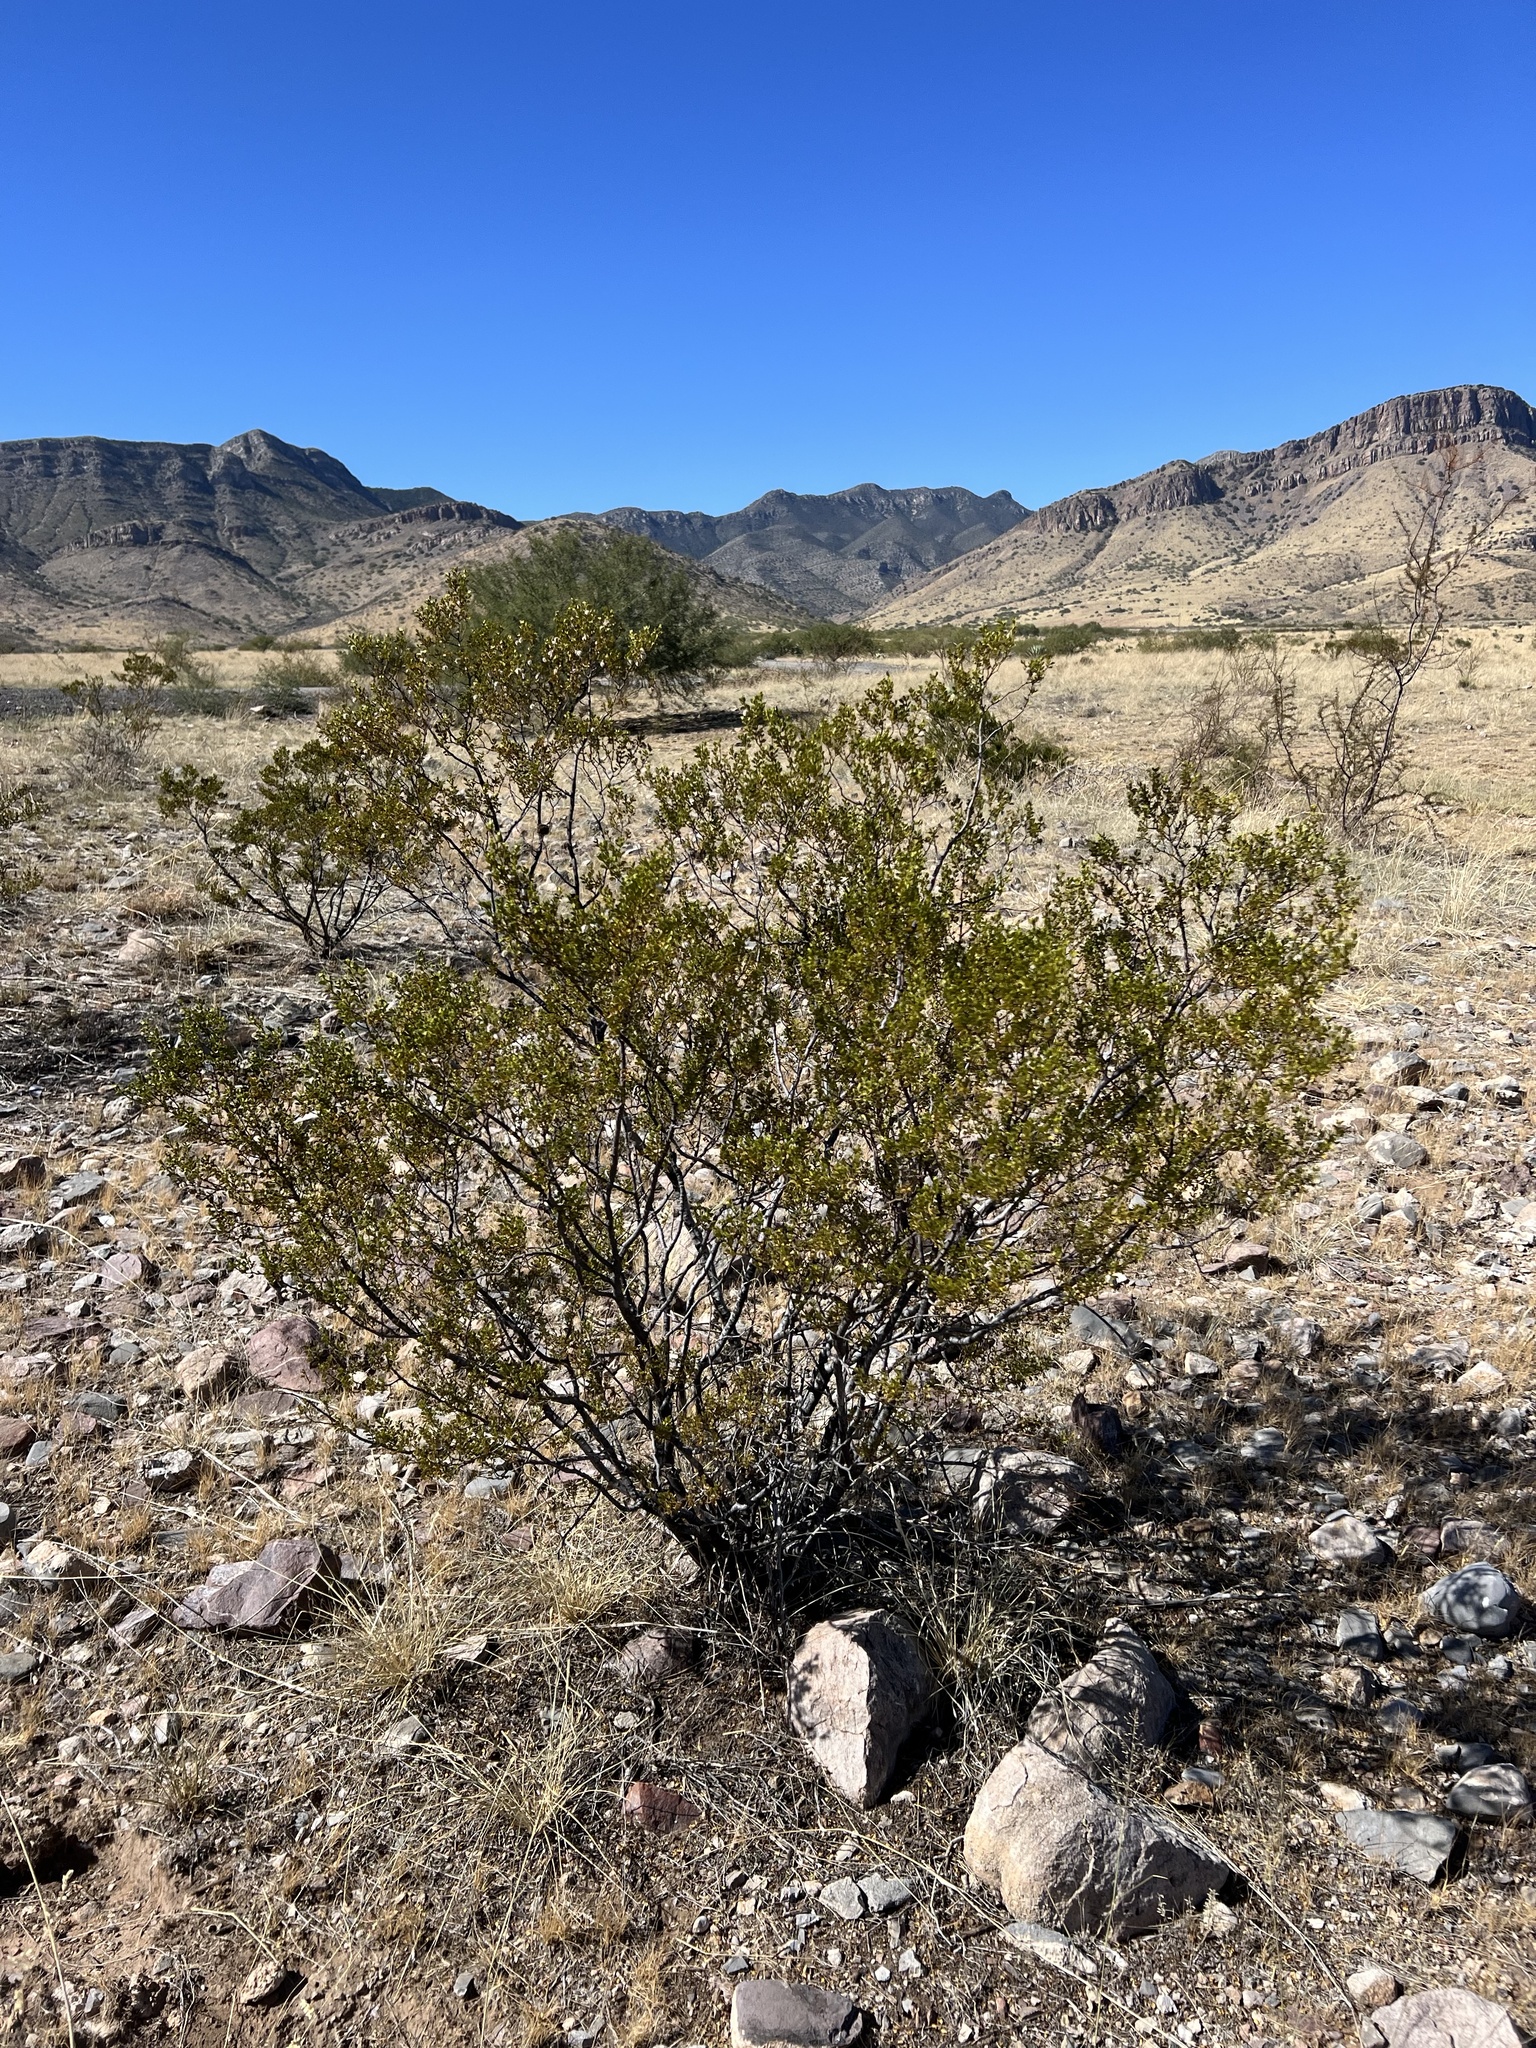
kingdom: Plantae
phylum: Tracheophyta
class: Magnoliopsida
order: Zygophyllales
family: Zygophyllaceae
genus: Larrea
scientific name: Larrea tridentata
